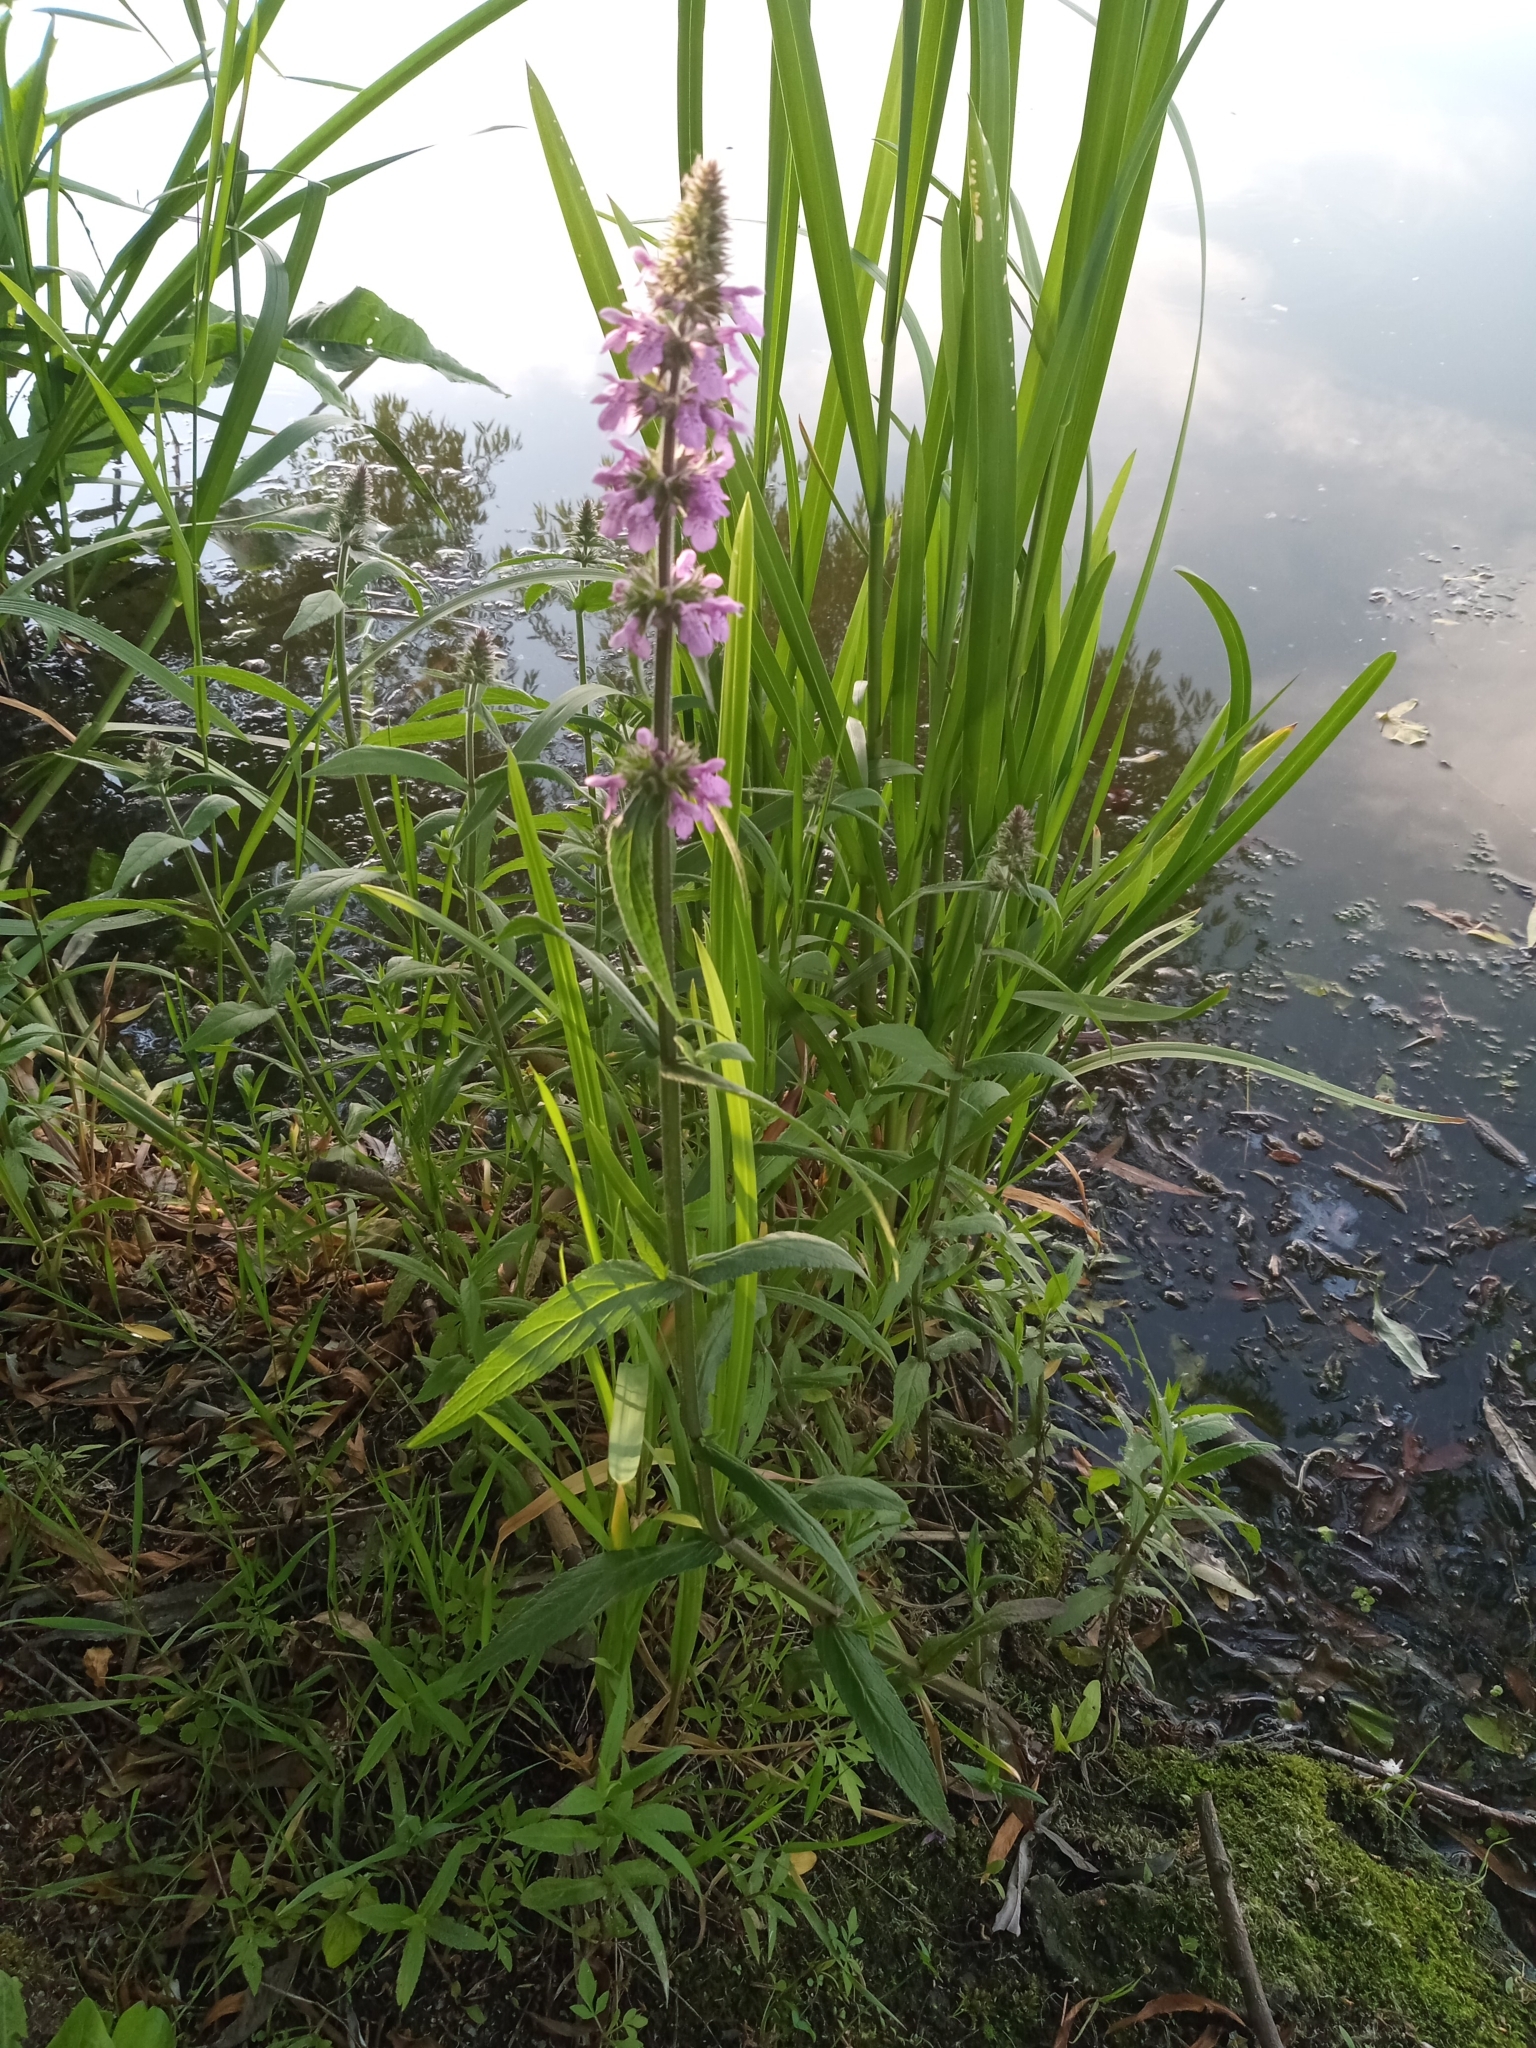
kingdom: Plantae
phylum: Tracheophyta
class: Magnoliopsida
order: Lamiales
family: Lamiaceae
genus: Stachys
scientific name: Stachys palustris
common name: Marsh woundwort
